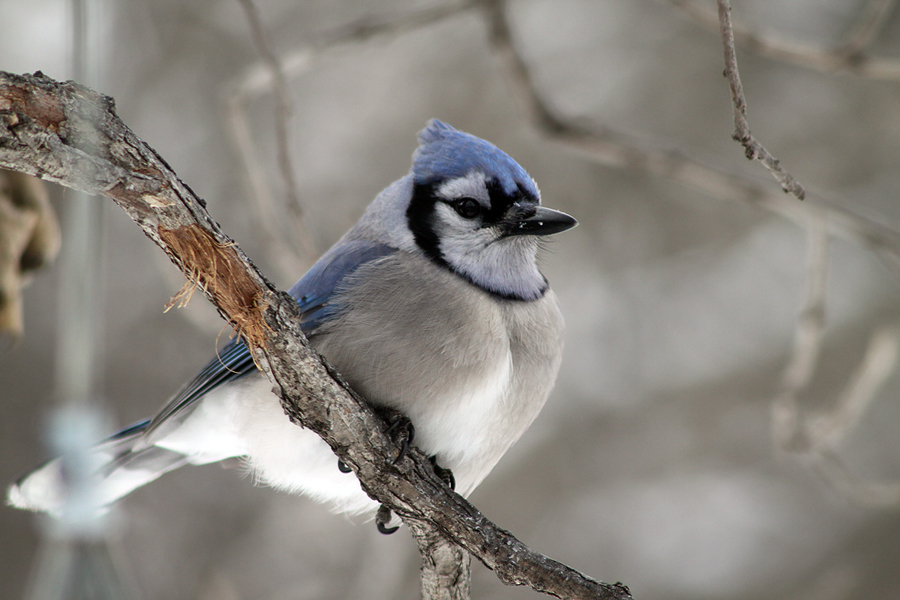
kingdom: Animalia
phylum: Chordata
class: Aves
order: Passeriformes
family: Corvidae
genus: Cyanocitta
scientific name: Cyanocitta cristata
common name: Blue jay
